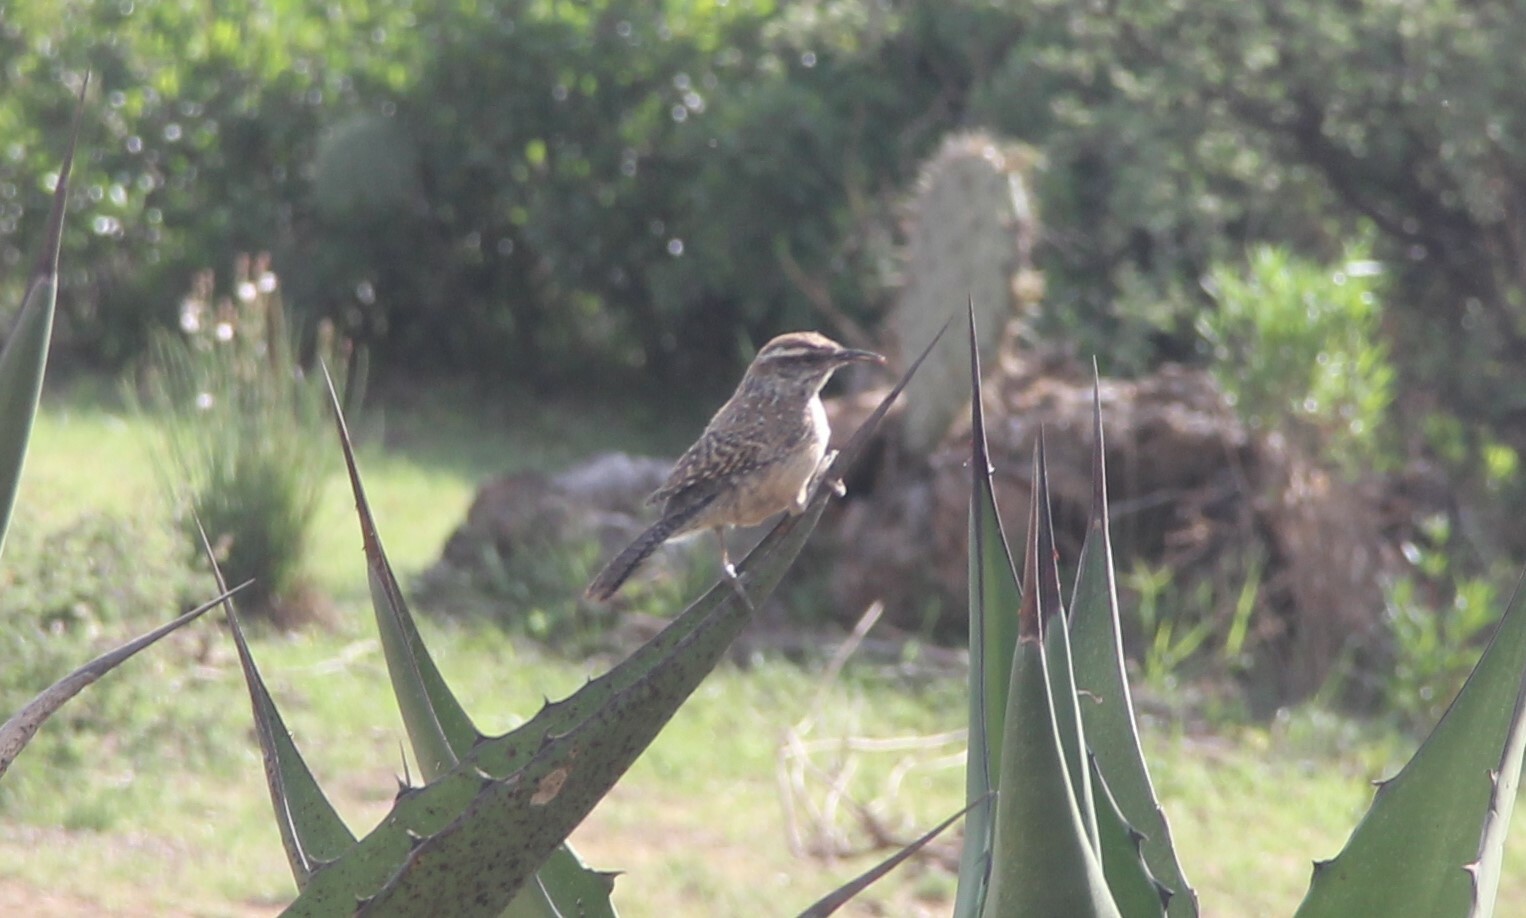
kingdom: Animalia
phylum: Chordata
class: Aves
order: Passeriformes
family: Troglodytidae
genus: Campylorhynchus
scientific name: Campylorhynchus brunneicapillus
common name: Cactus wren
